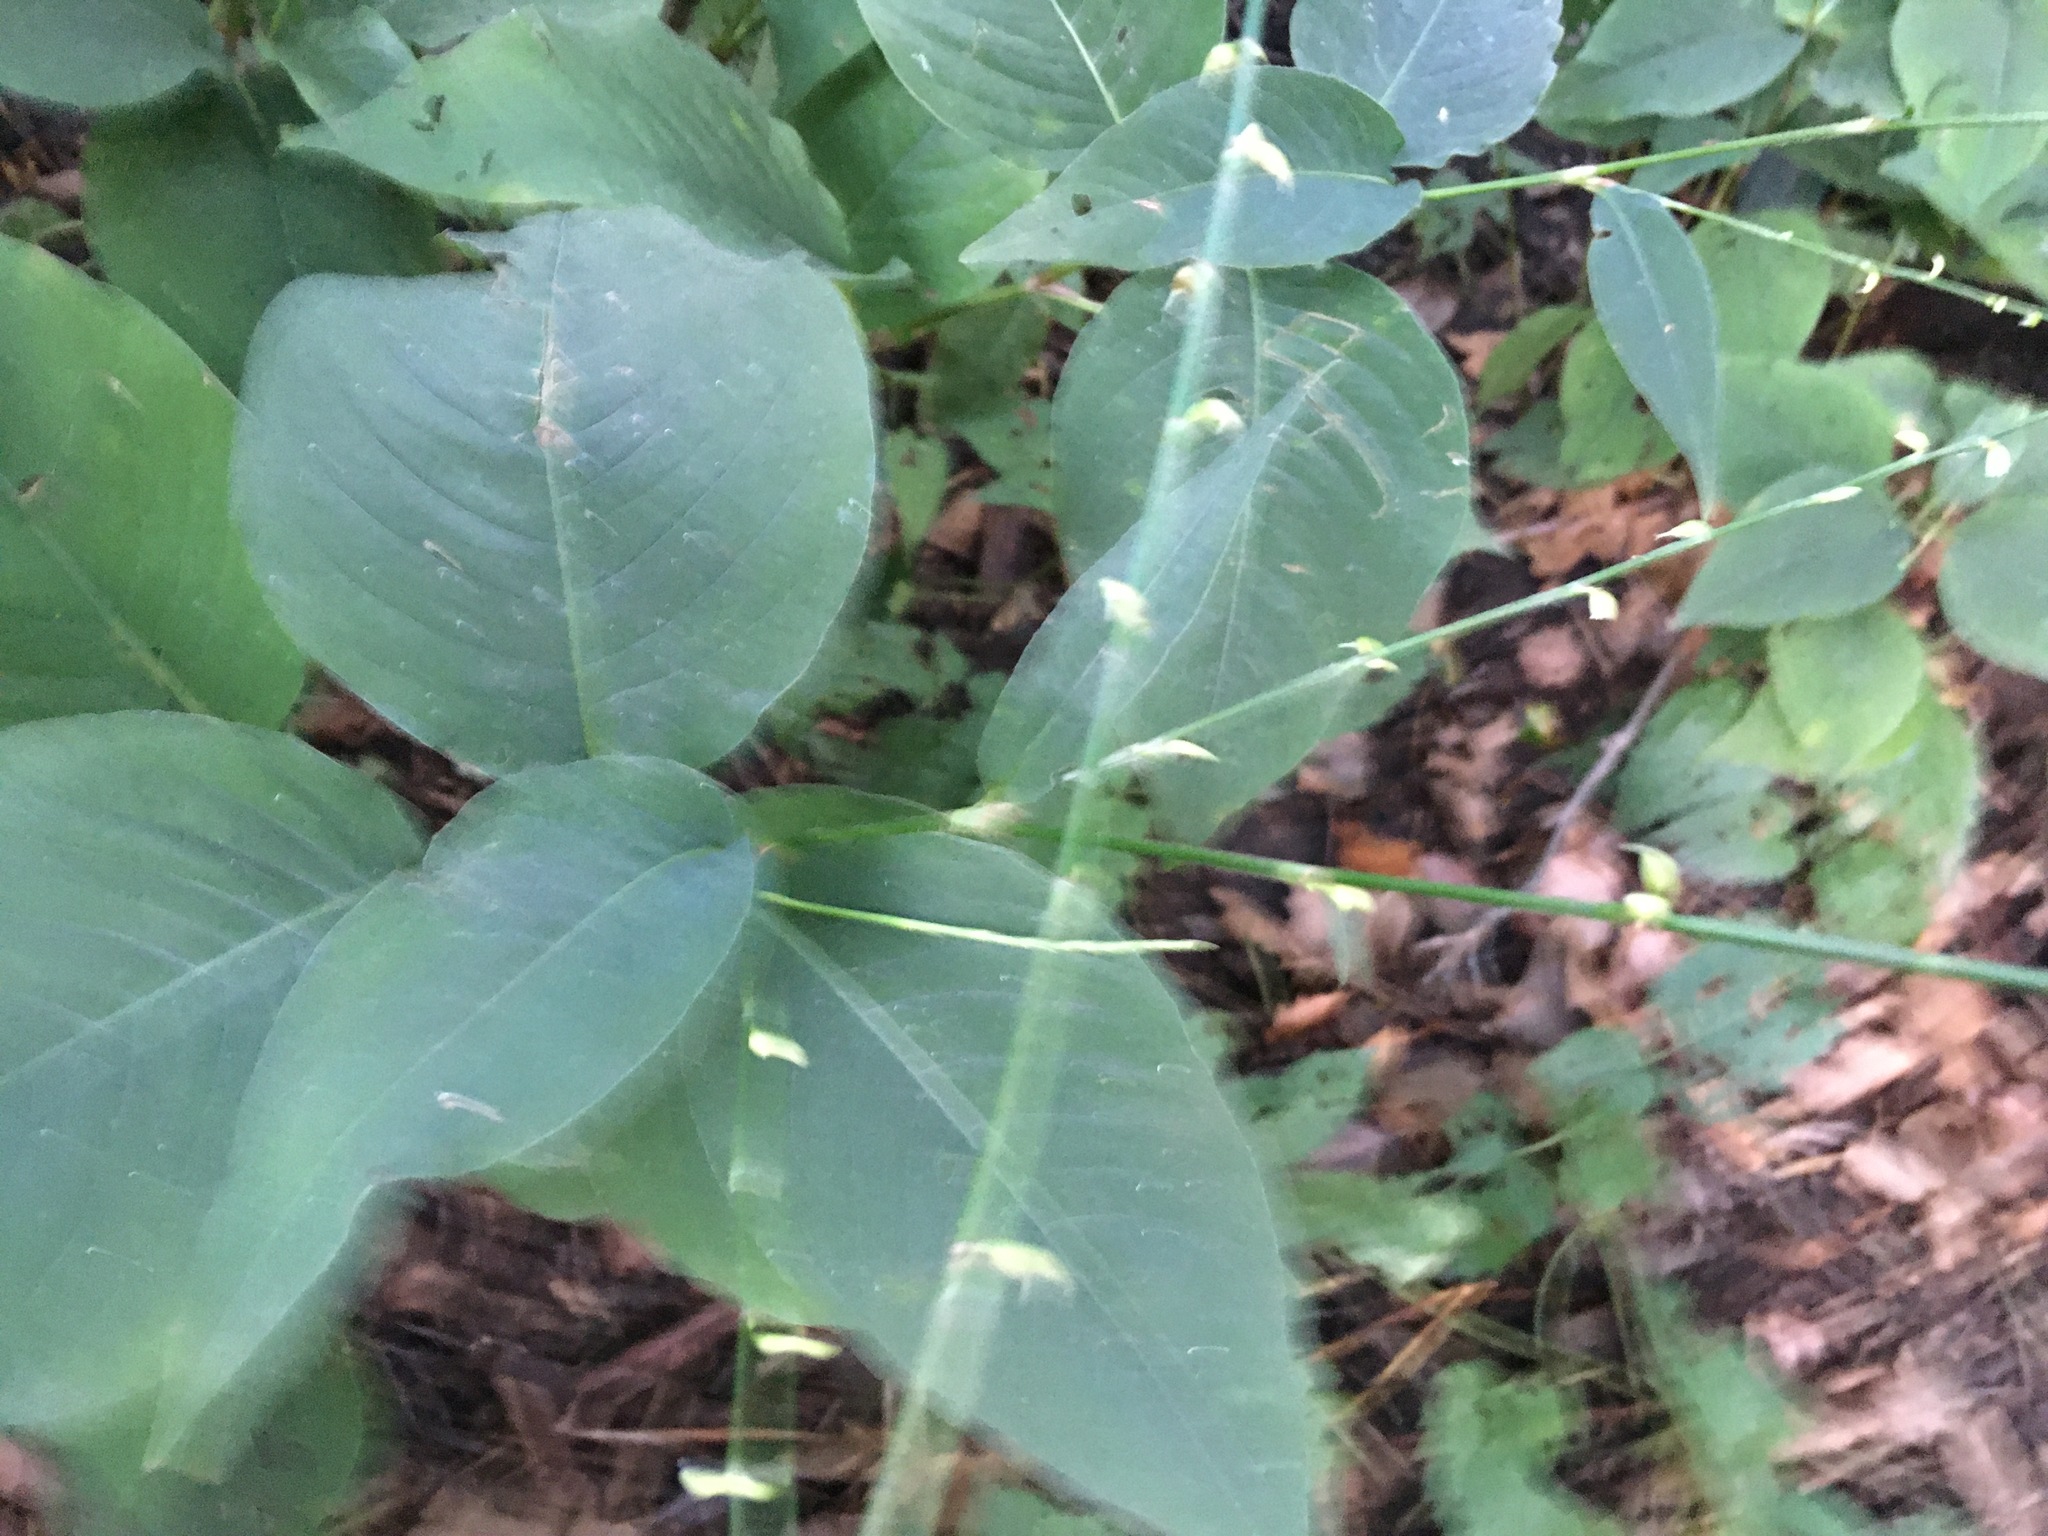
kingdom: Plantae
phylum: Tracheophyta
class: Magnoliopsida
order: Caryophyllales
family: Polygonaceae
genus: Persicaria
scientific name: Persicaria virginiana
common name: Jumpseed
